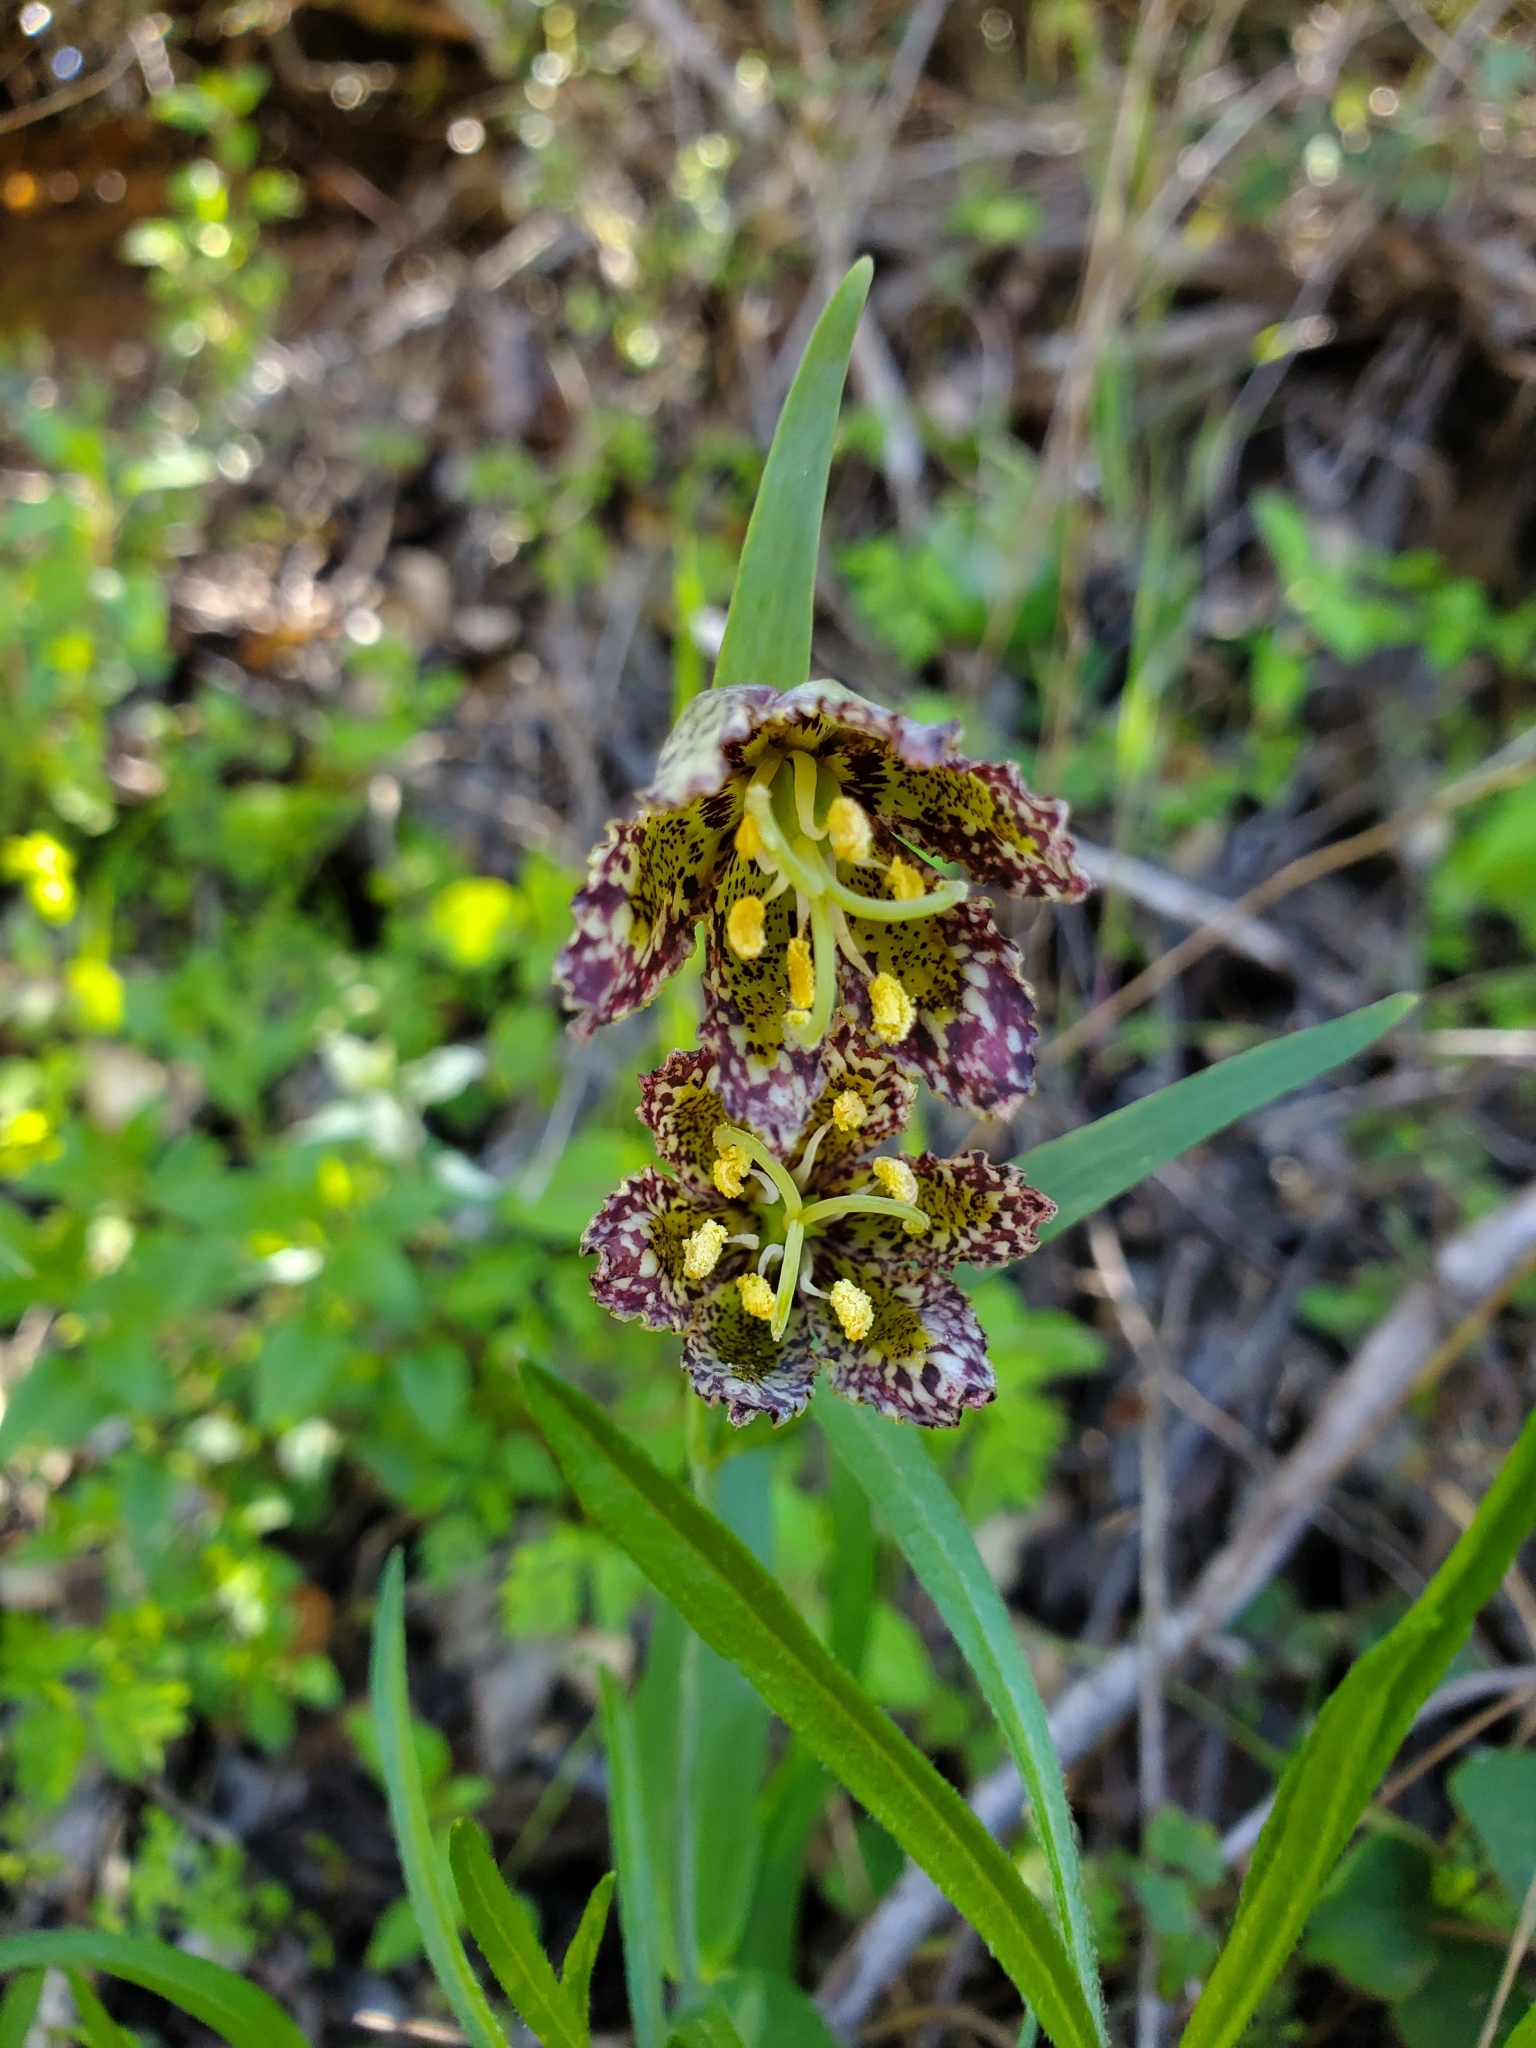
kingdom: Plantae
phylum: Tracheophyta
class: Liliopsida
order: Liliales
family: Liliaceae
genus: Fritillaria
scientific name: Fritillaria affinis
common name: Ojai fritillary
